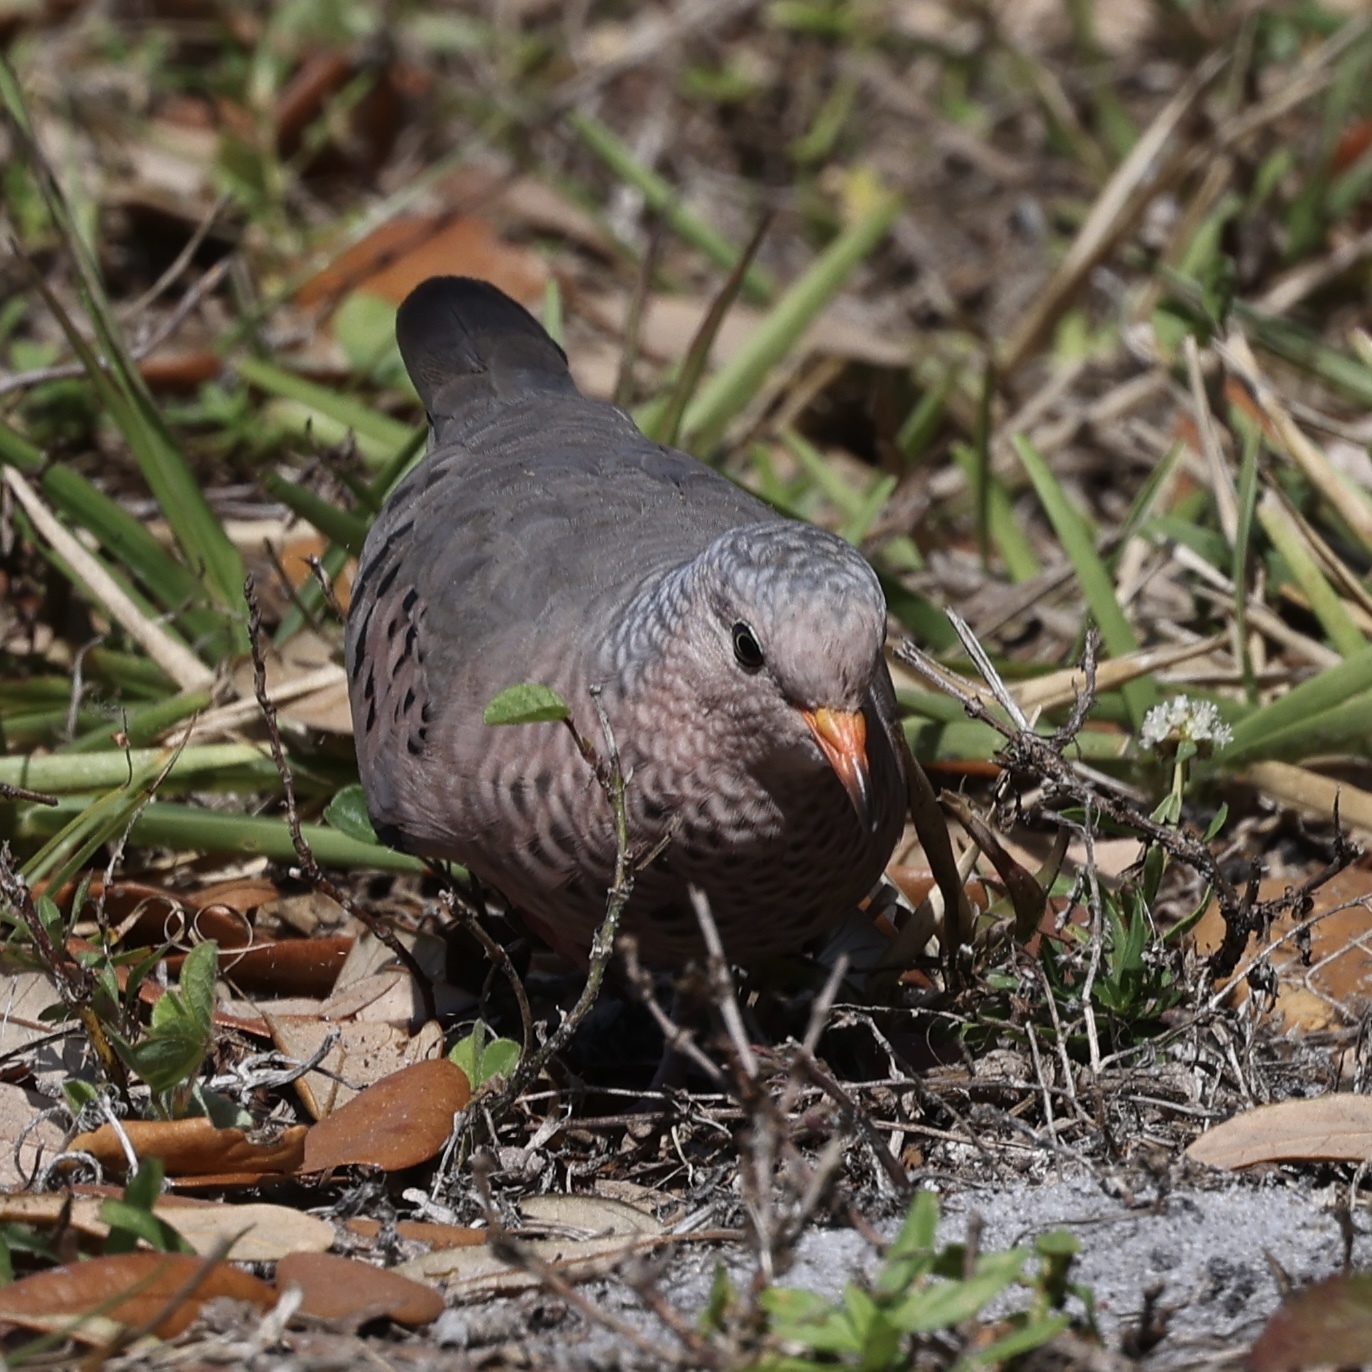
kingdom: Animalia
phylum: Chordata
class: Aves
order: Columbiformes
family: Columbidae
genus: Columbina
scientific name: Columbina passerina
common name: Common ground-dove
